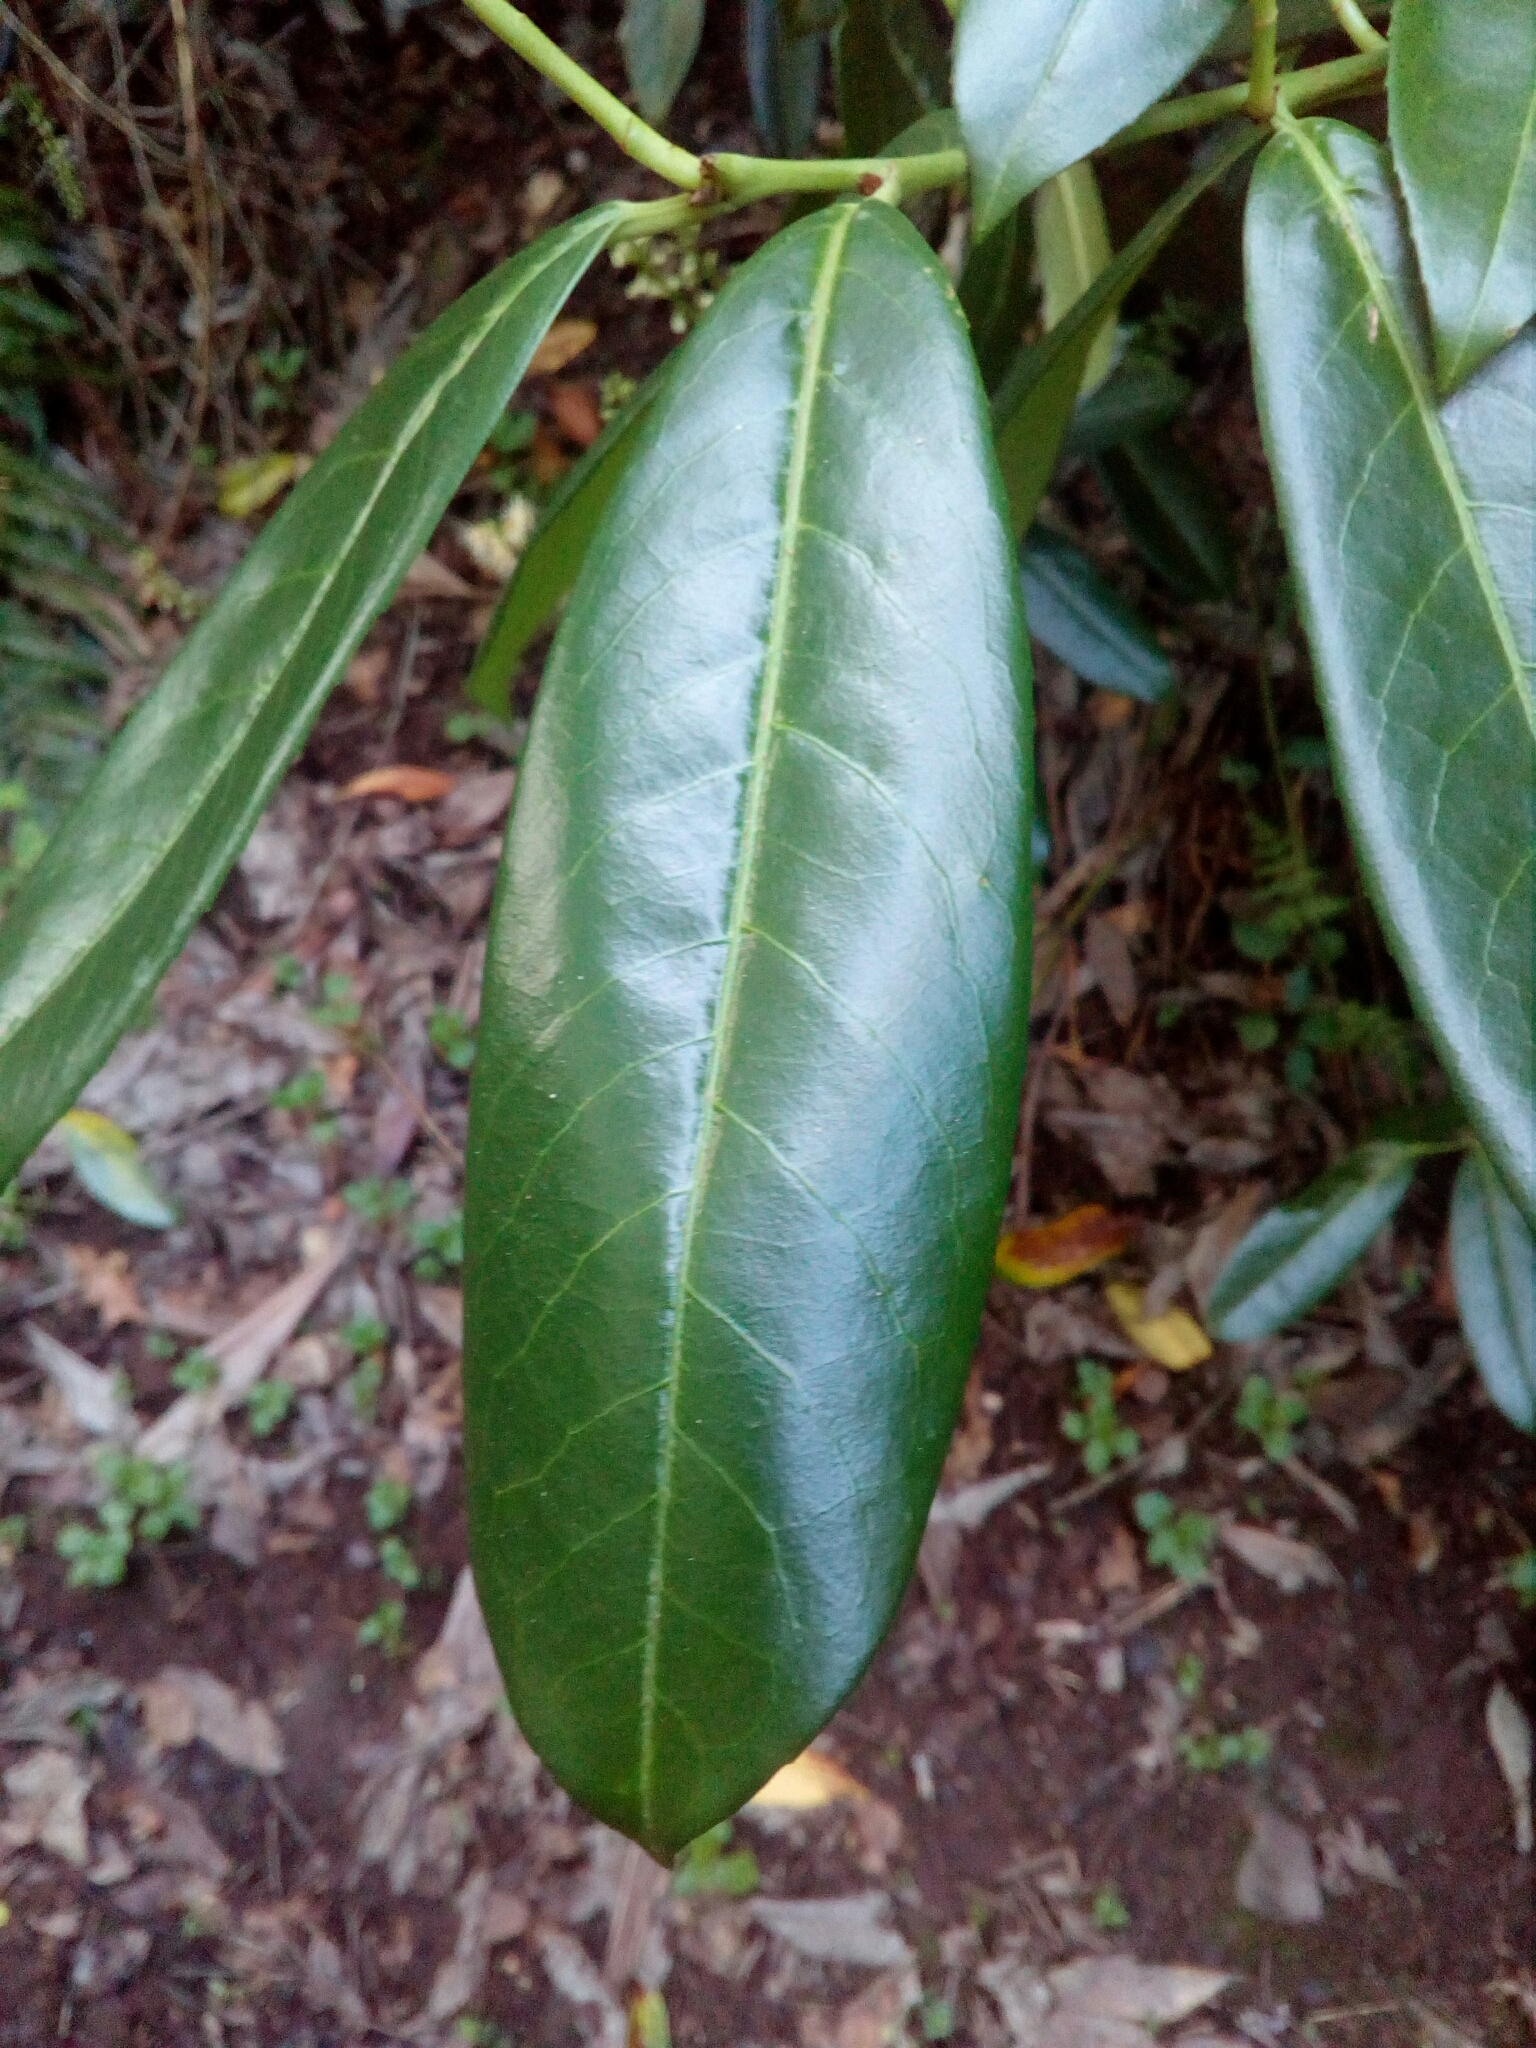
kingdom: Plantae
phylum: Tracheophyta
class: Magnoliopsida
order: Rosales
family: Rosaceae
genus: Prunus
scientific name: Prunus laurocerasus
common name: Cherry laurel
